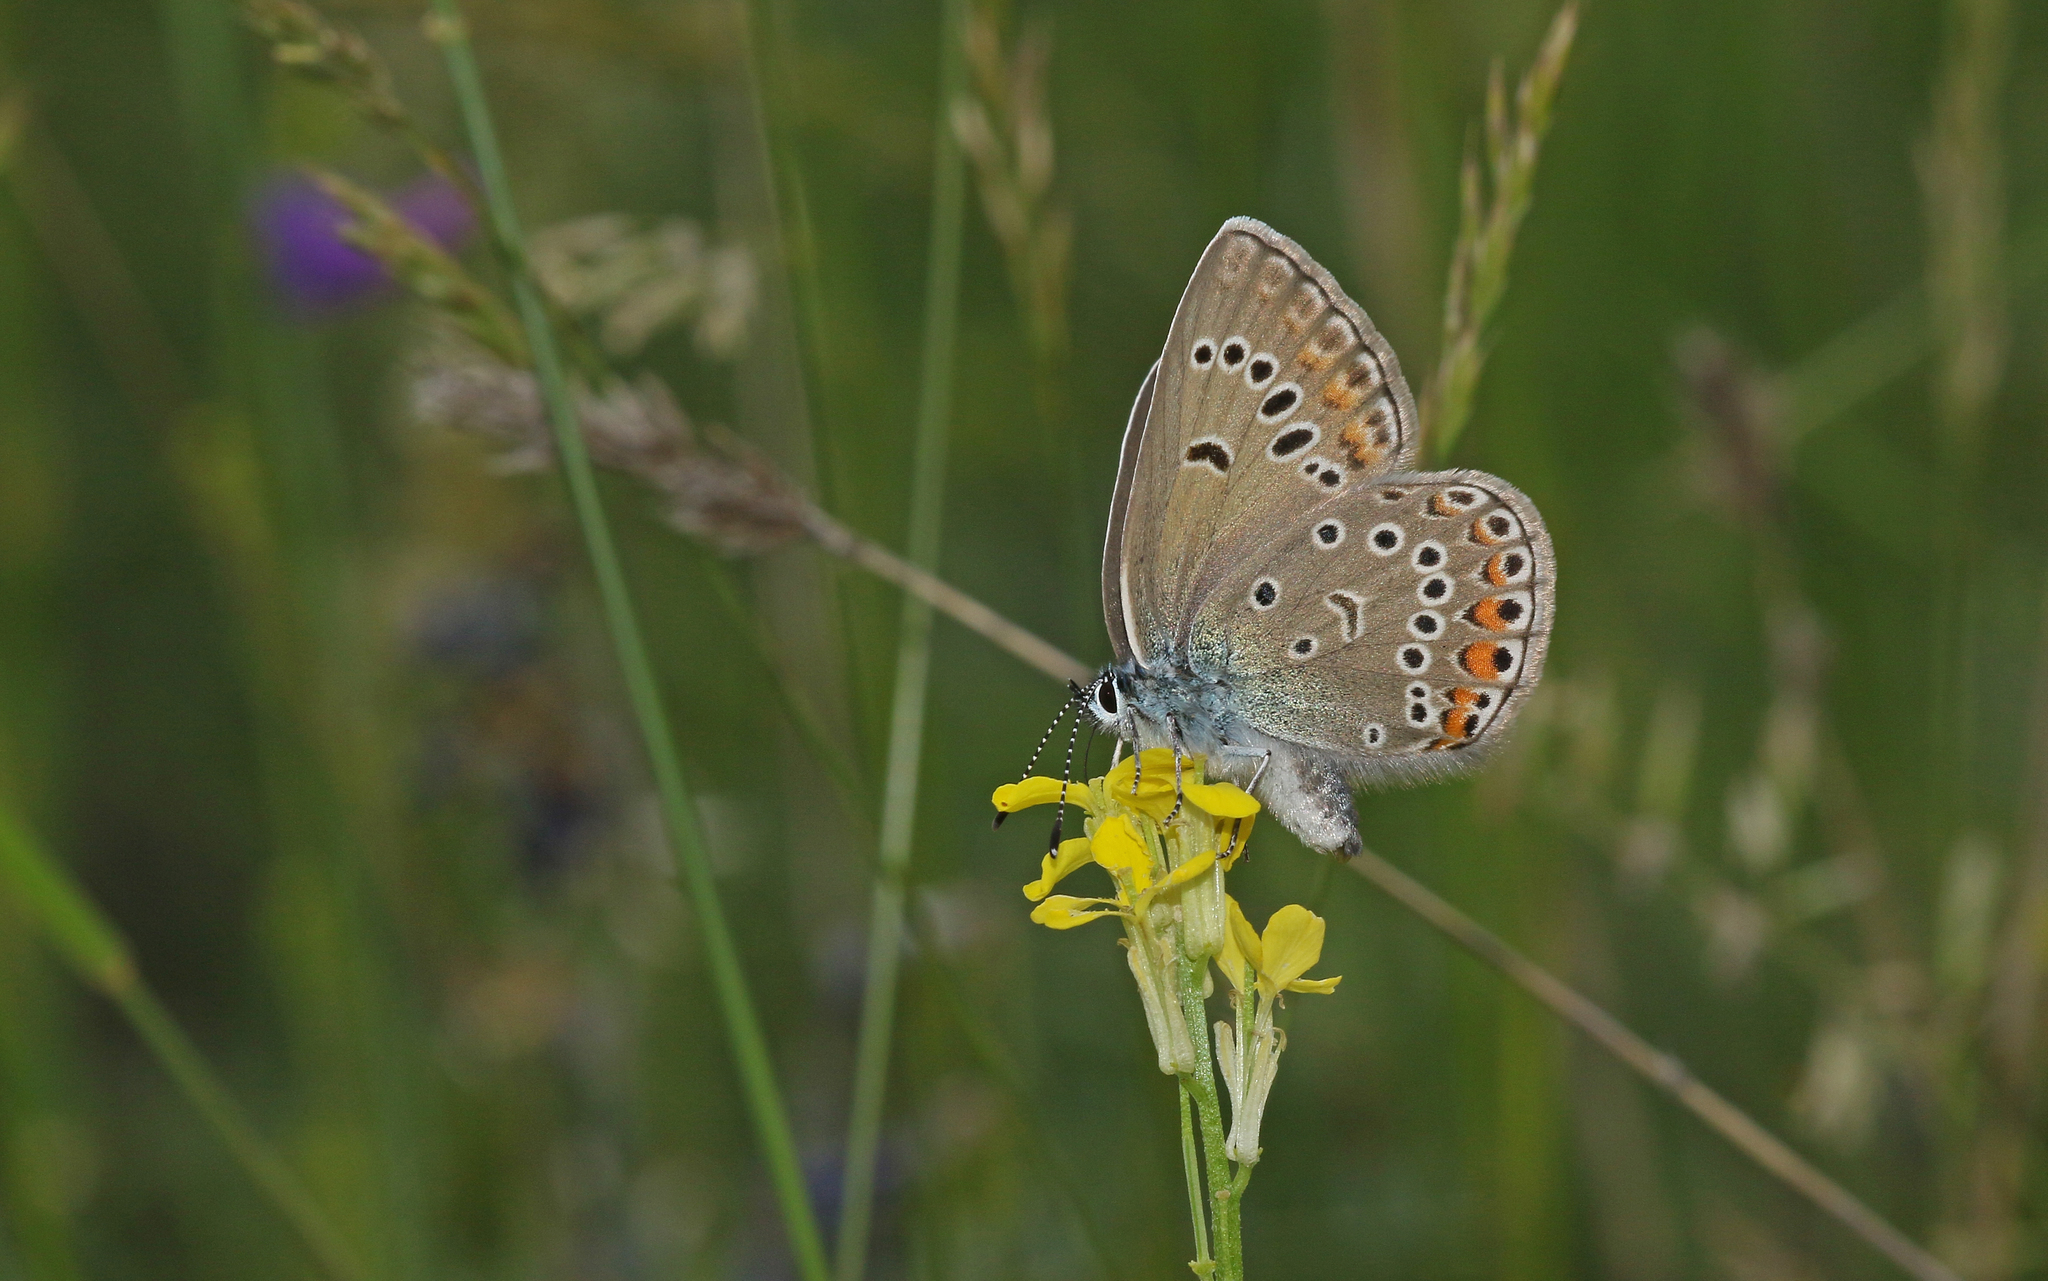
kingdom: Animalia
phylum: Arthropoda
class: Insecta
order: Lepidoptera
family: Lycaenidae
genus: Plebejus
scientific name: Plebejus amanda
